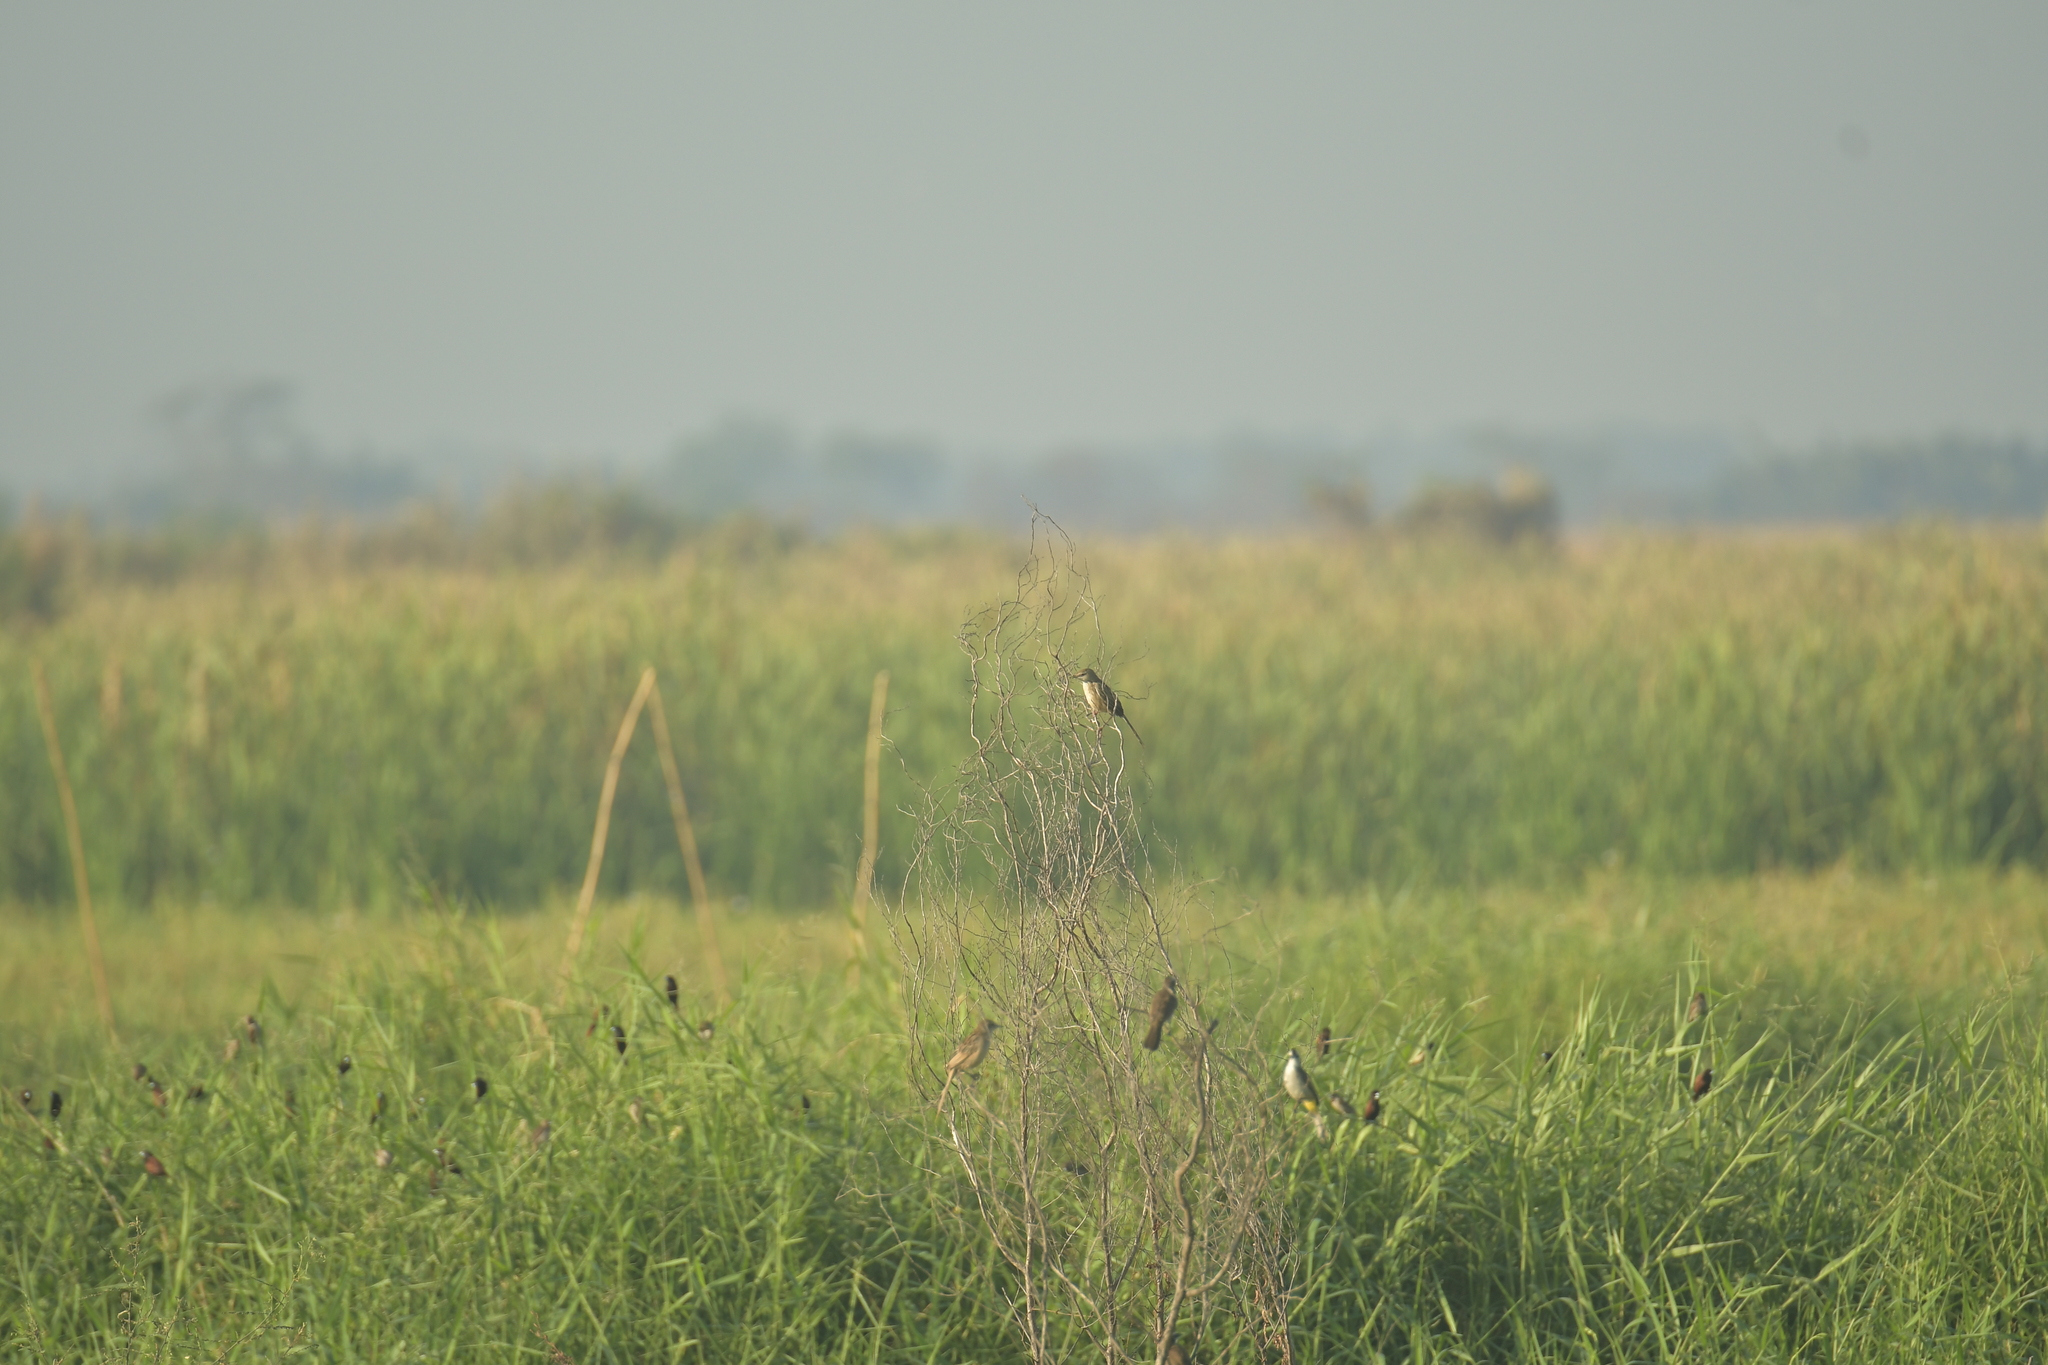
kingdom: Animalia
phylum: Chordata
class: Aves
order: Passeriformes
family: Locustellidae
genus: Megalurus
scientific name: Megalurus palustris
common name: Striated grassbird
